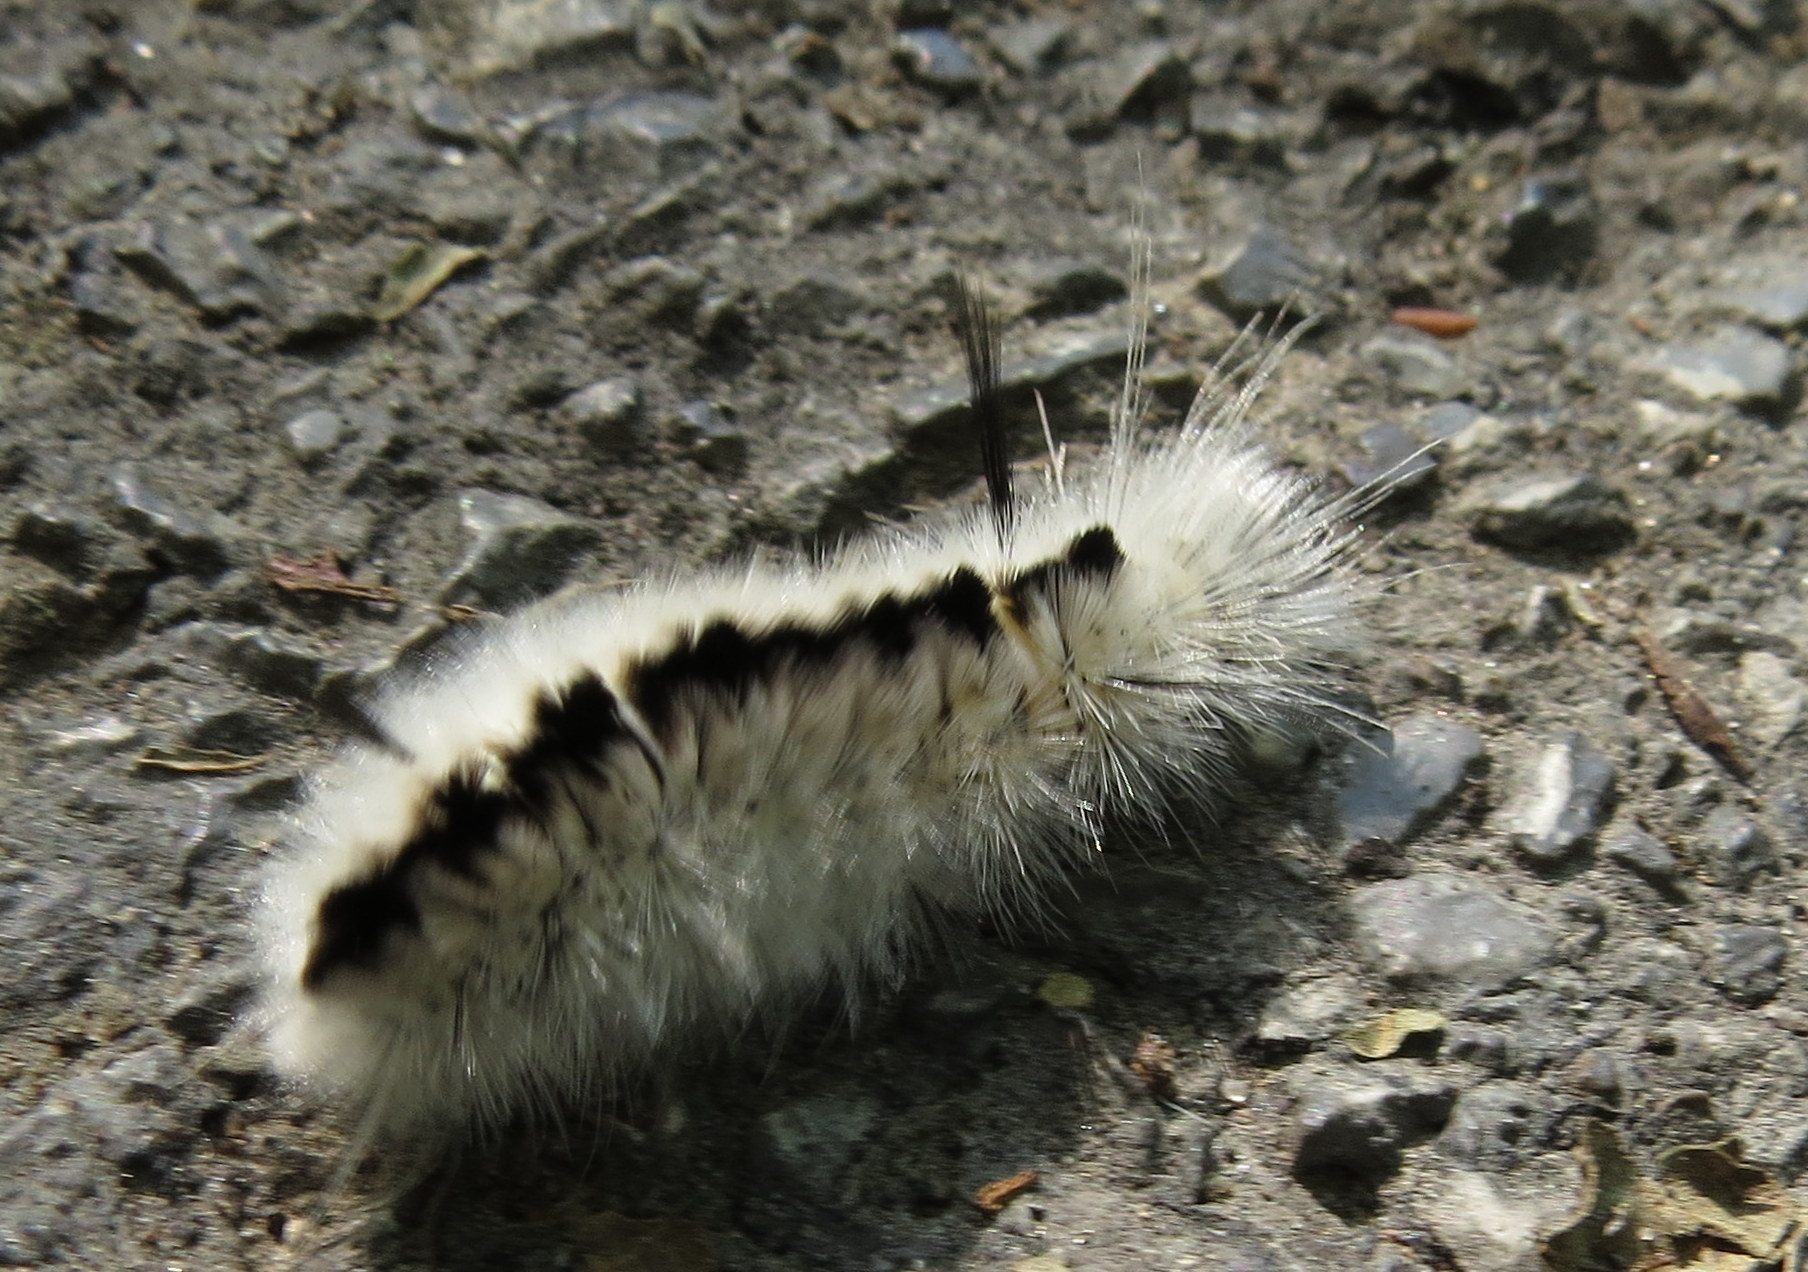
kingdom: Animalia
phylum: Arthropoda
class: Insecta
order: Lepidoptera
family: Erebidae
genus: Lophocampa
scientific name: Lophocampa caryae
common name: Hickory tussock moth
